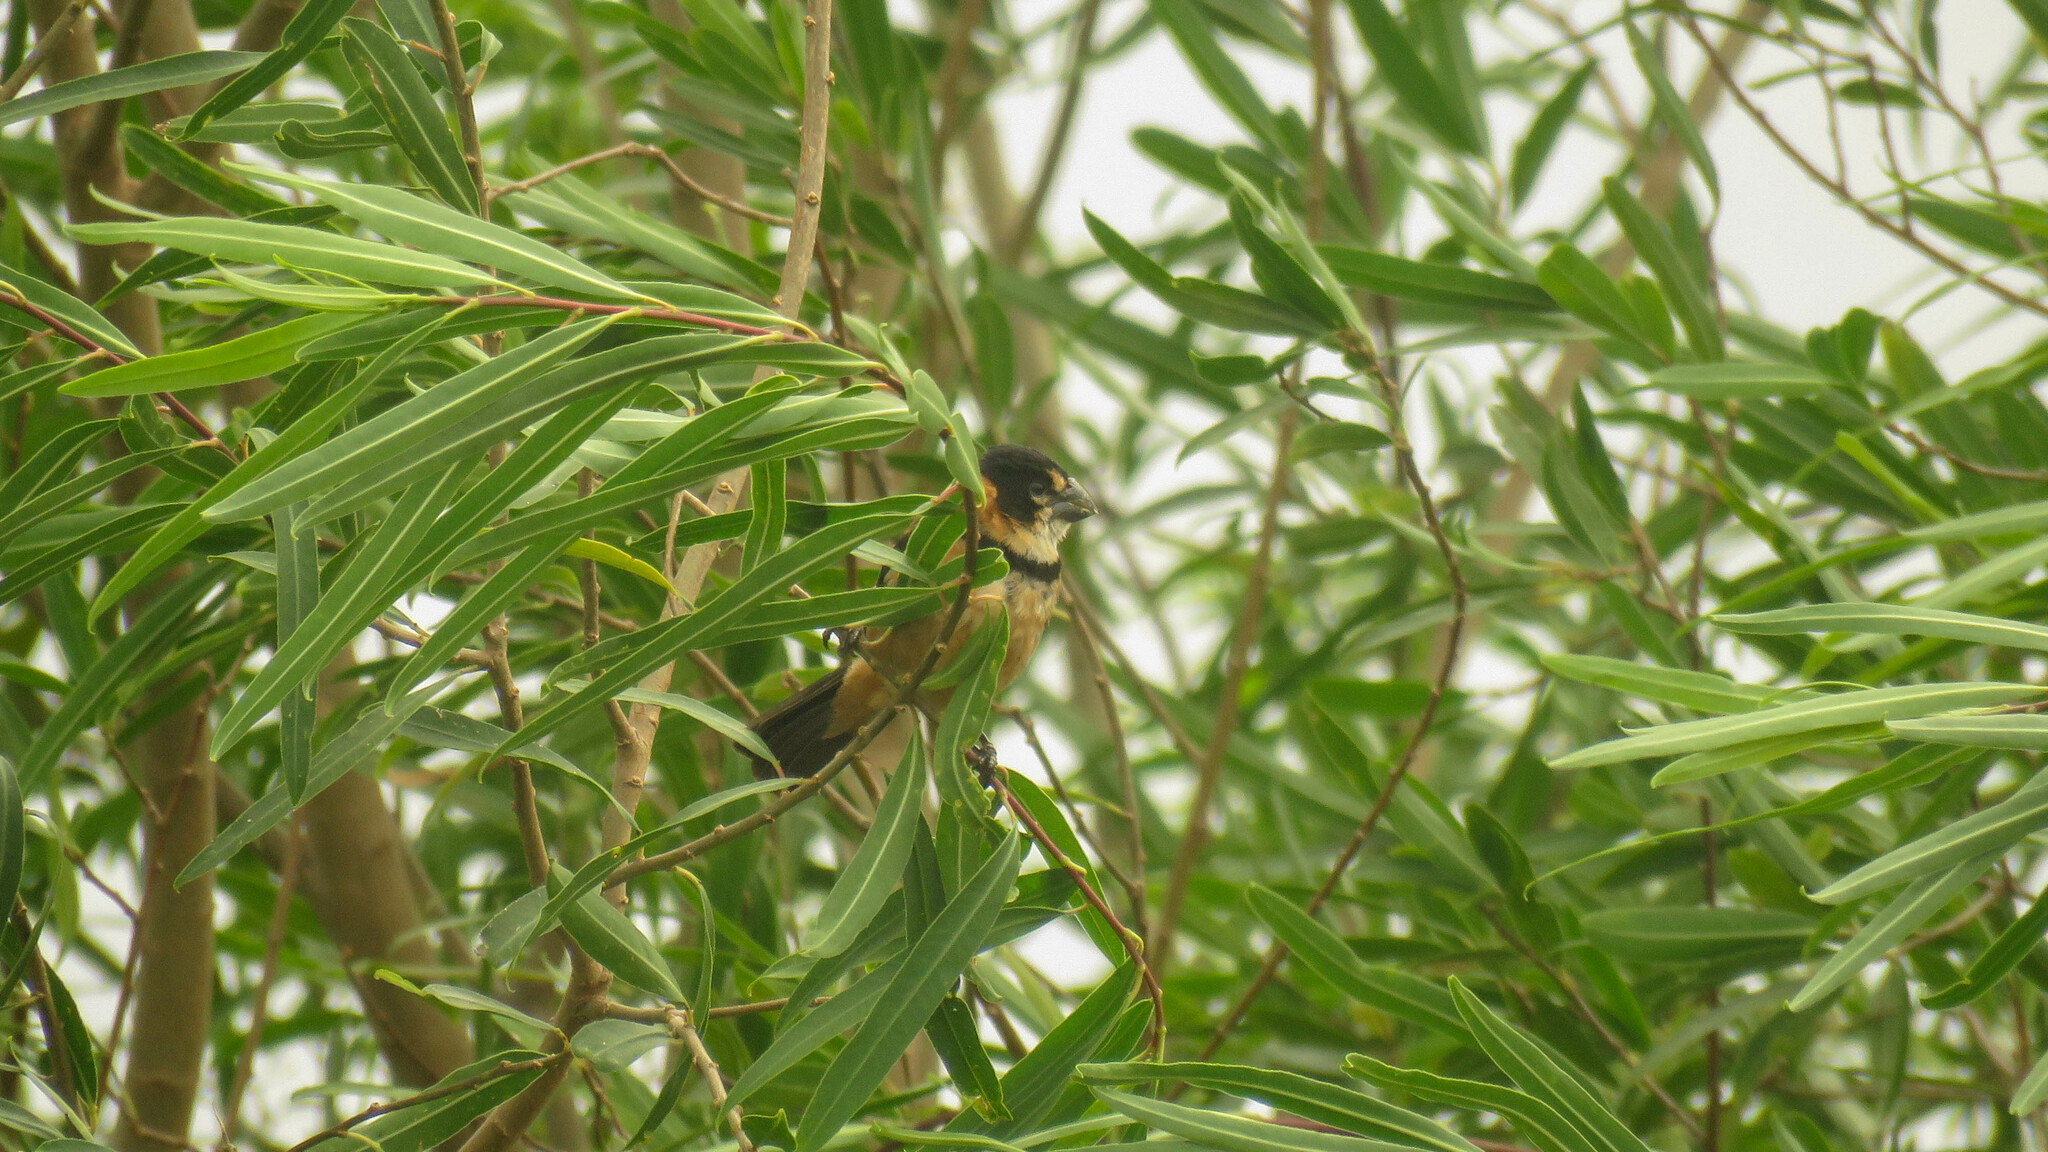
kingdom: Animalia
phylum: Chordata
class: Aves
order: Passeriformes
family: Thraupidae
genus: Sporophila
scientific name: Sporophila collaris
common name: Rusty-collared seedeater
